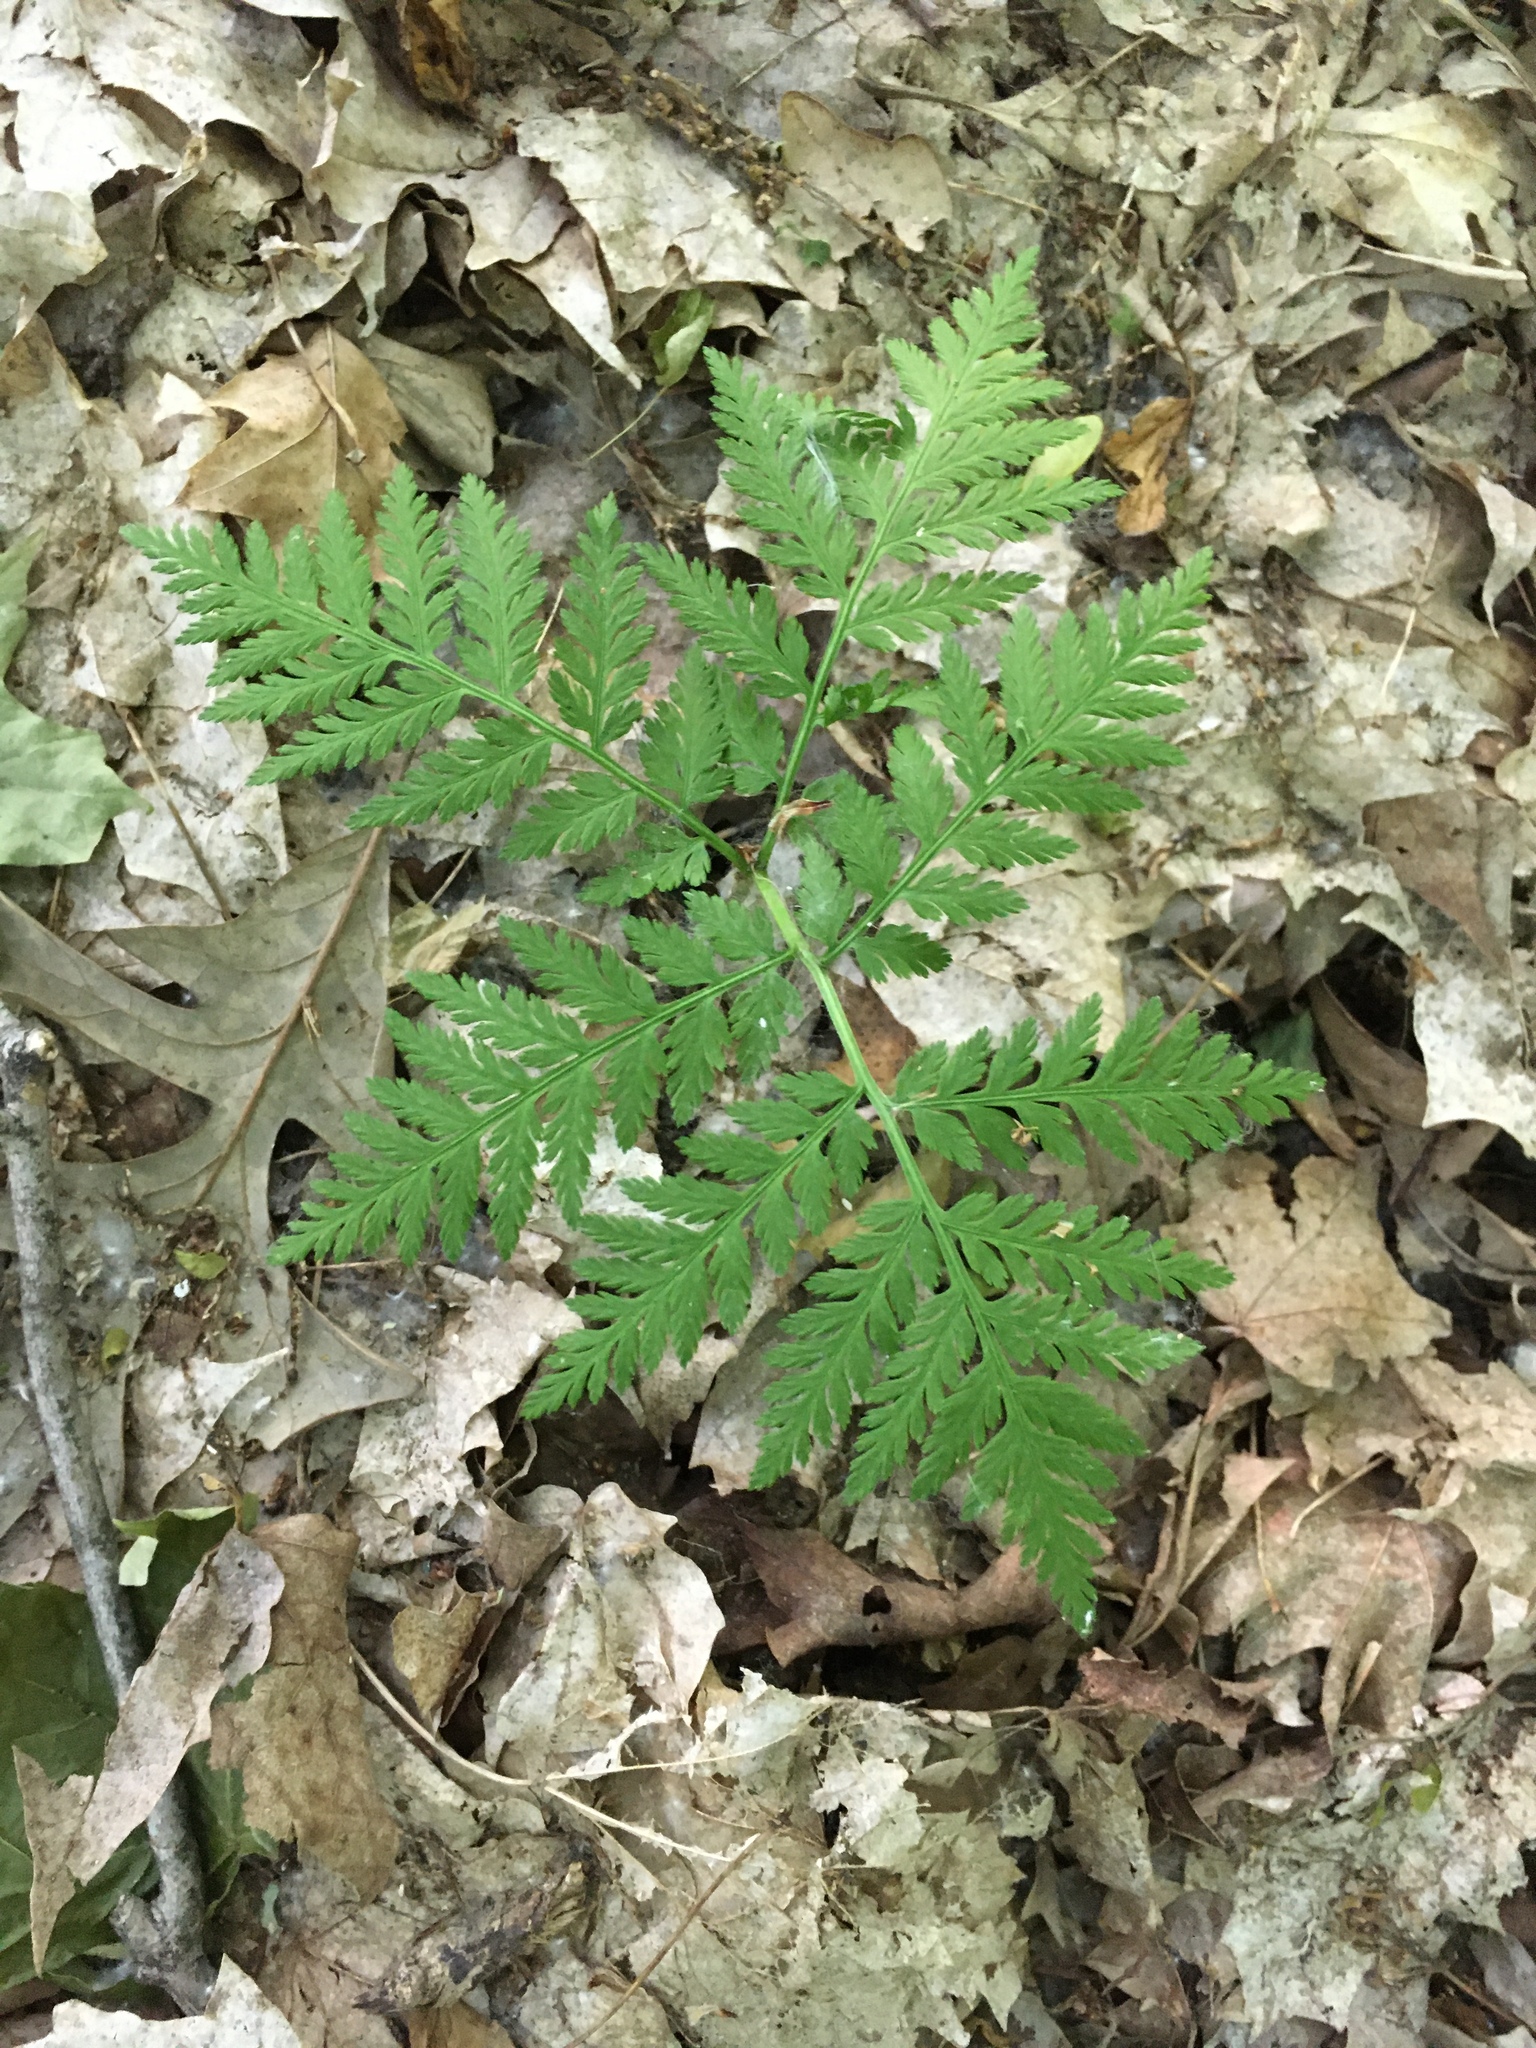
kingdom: Plantae
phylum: Tracheophyta
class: Polypodiopsida
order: Ophioglossales
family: Ophioglossaceae
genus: Botrypus
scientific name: Botrypus virginianus
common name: Common grapefern
